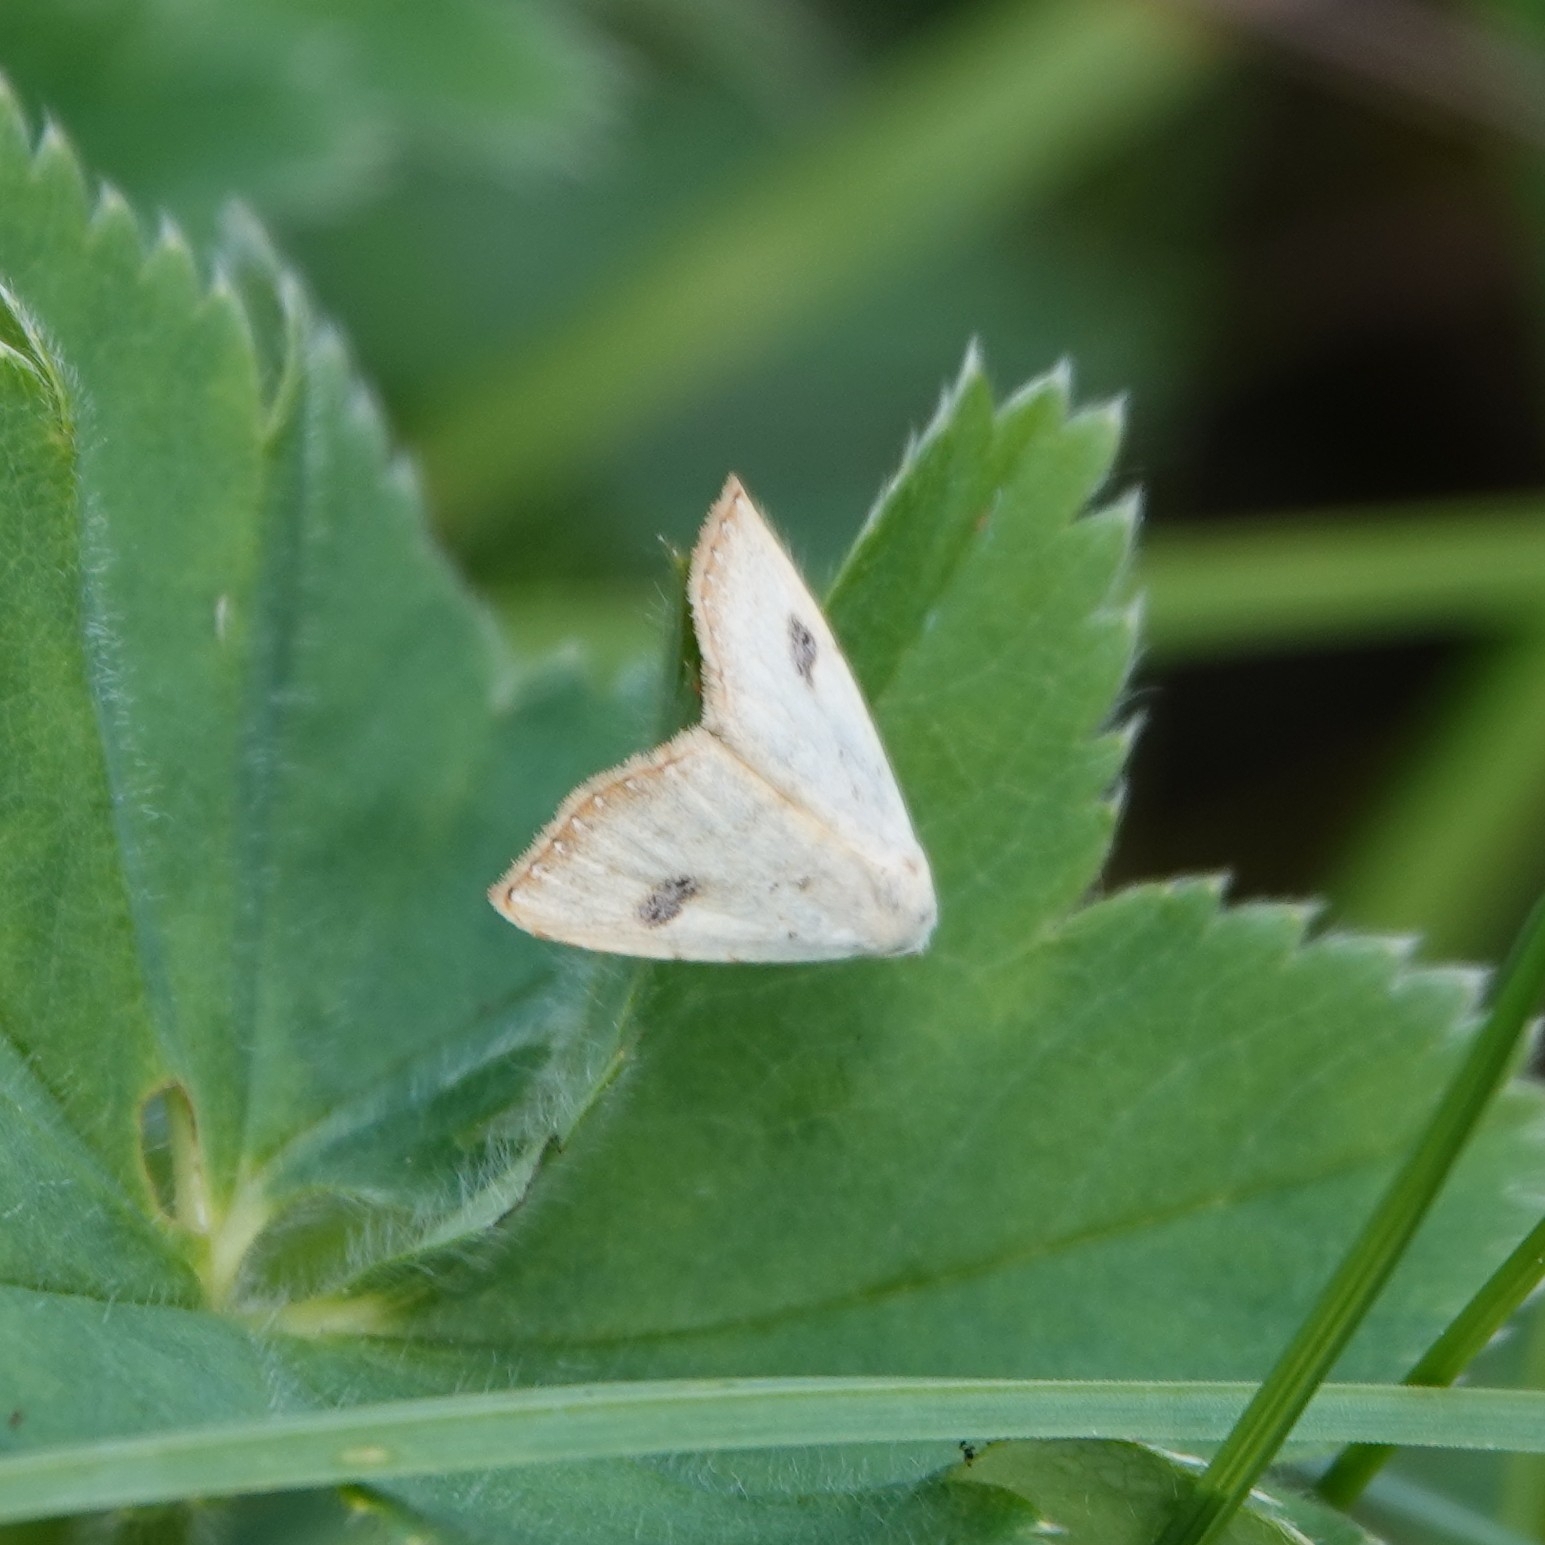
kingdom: Animalia
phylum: Arthropoda
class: Insecta
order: Lepidoptera
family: Erebidae
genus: Rivula
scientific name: Rivula sericealis
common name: Straw dot
